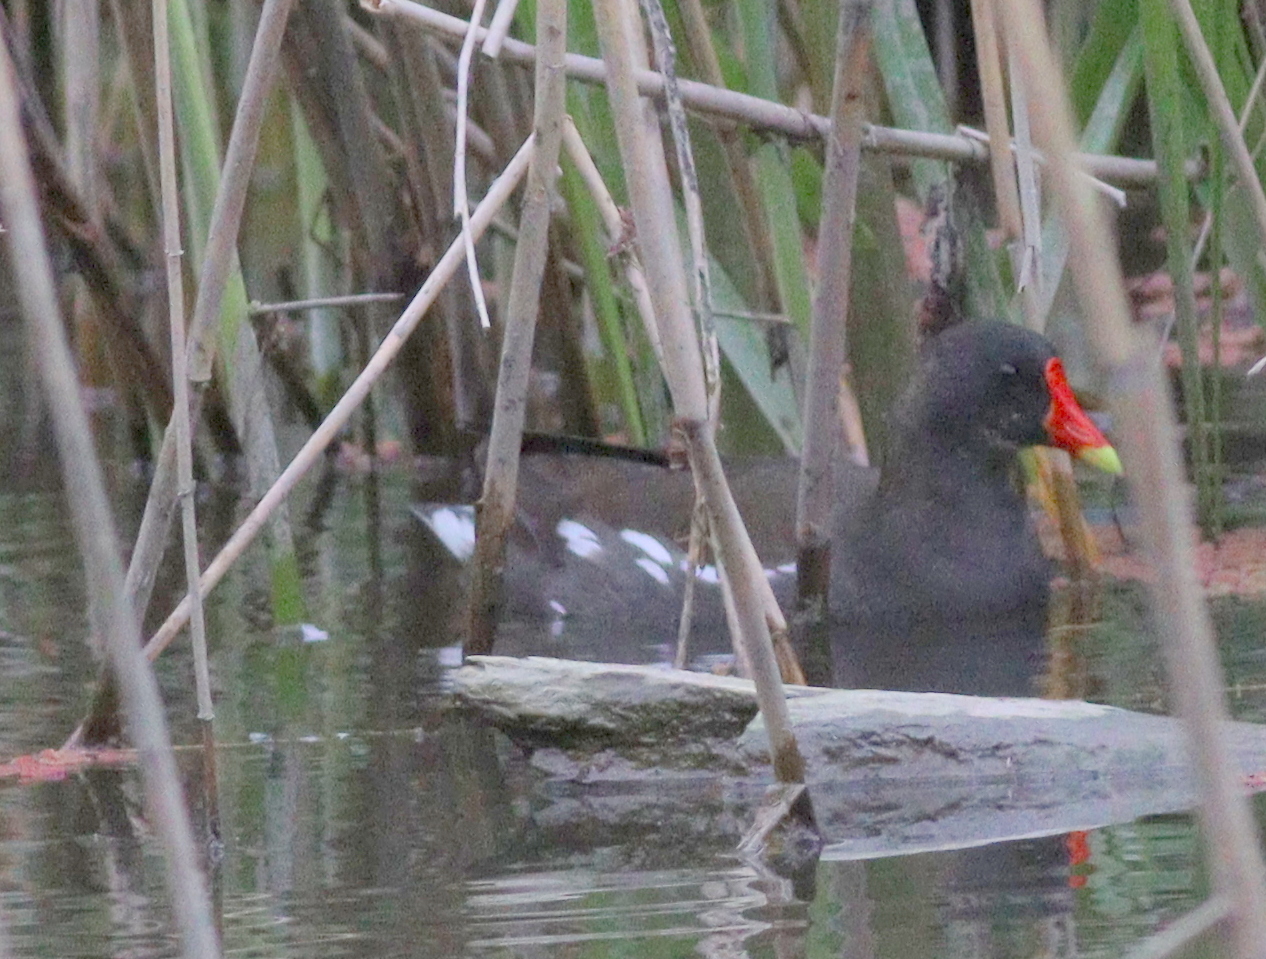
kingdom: Animalia
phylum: Chordata
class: Aves
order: Gruiformes
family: Rallidae
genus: Gallinula
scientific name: Gallinula chloropus
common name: Common moorhen
